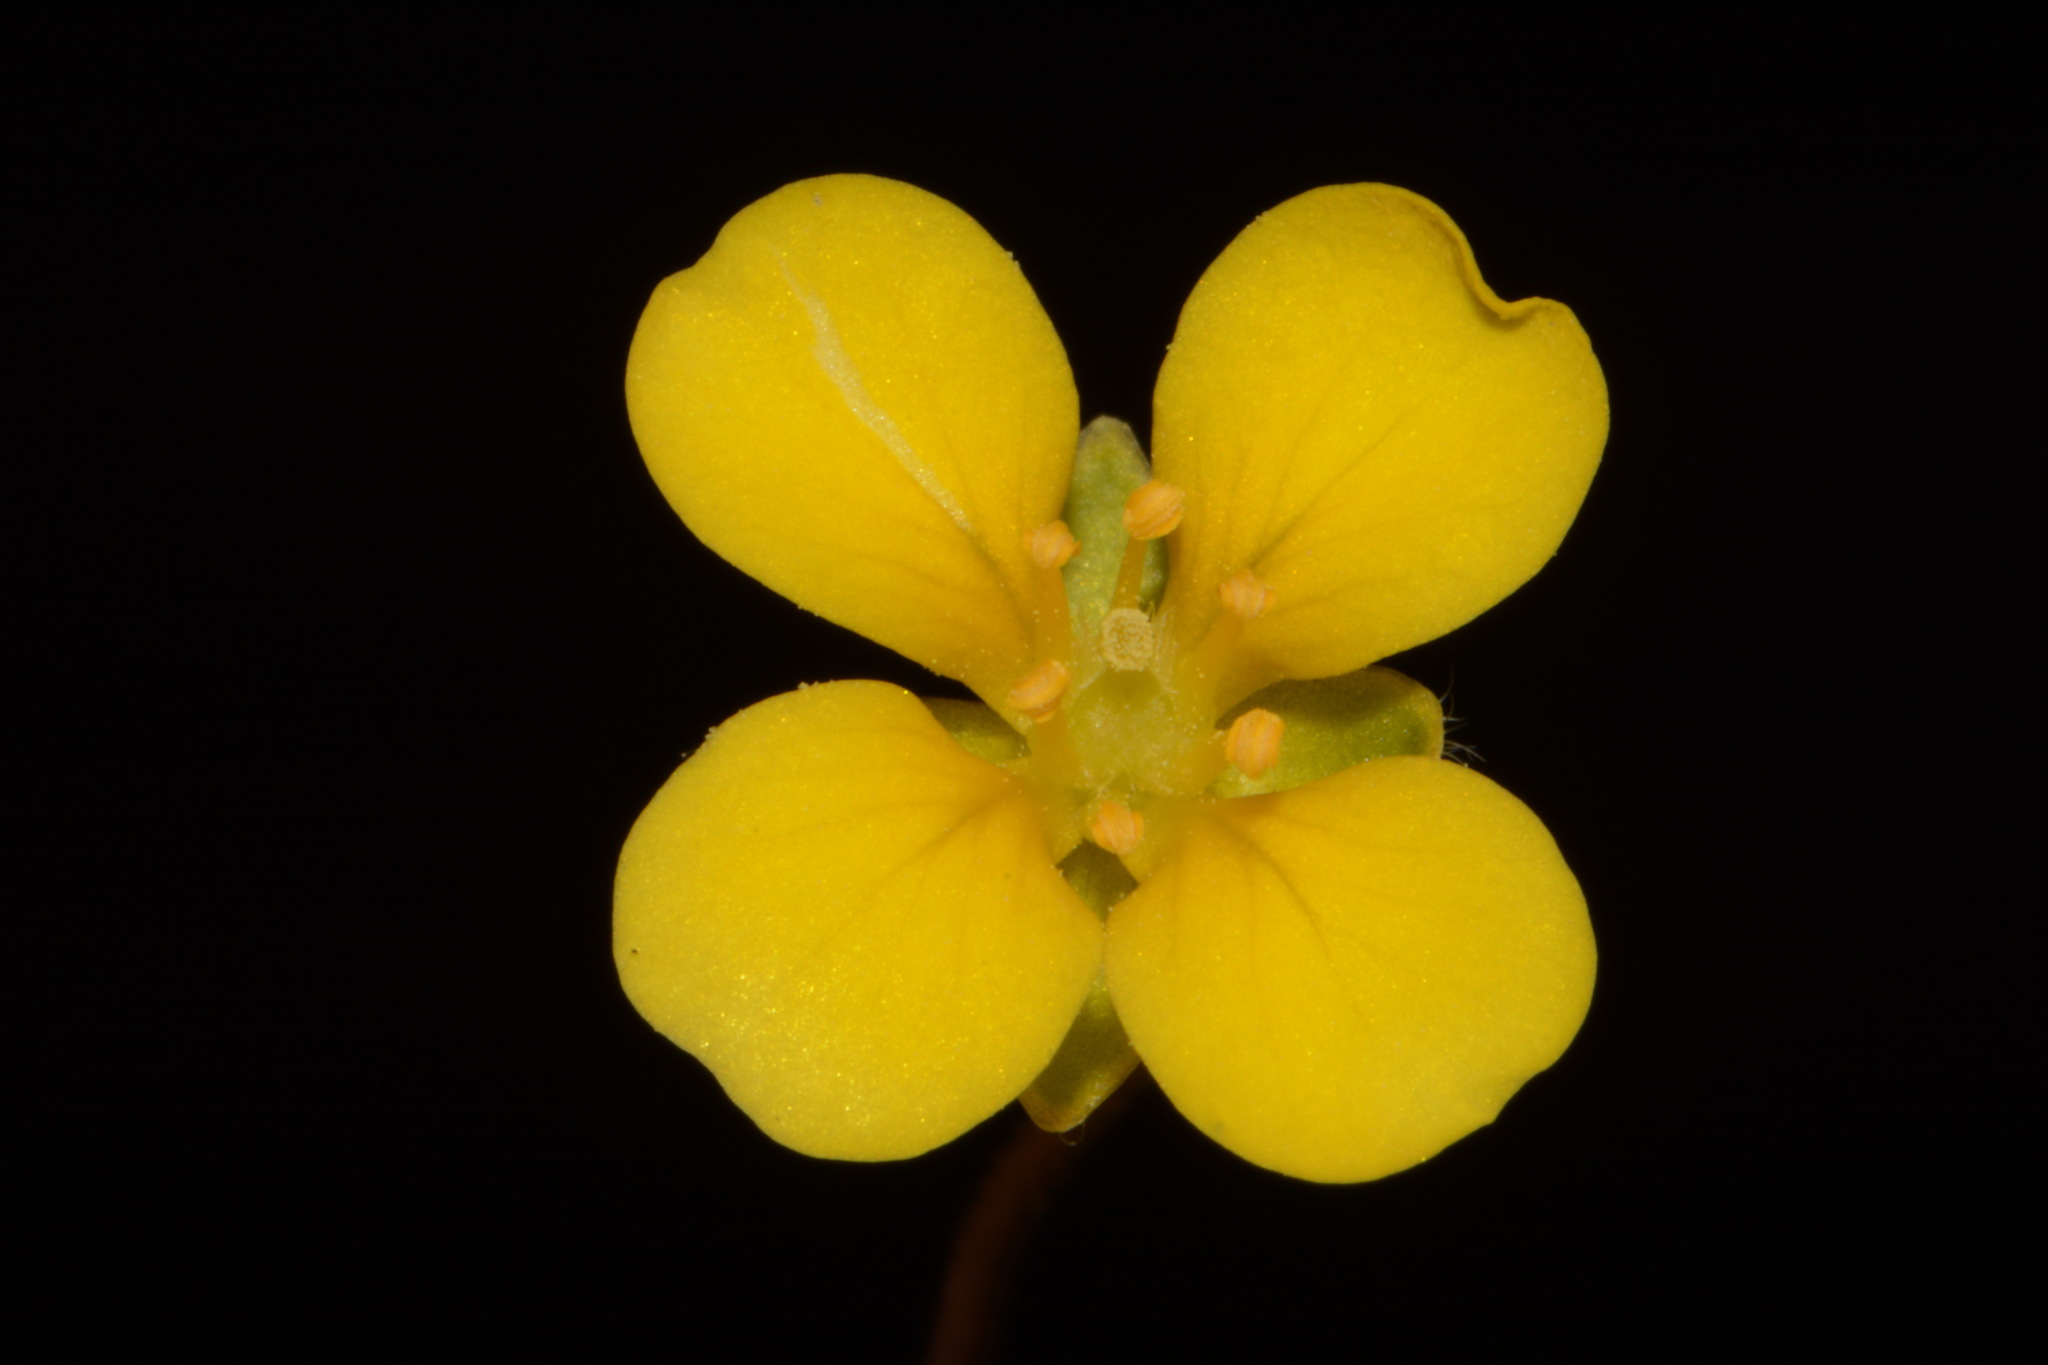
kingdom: Plantae
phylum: Tracheophyta
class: Magnoliopsida
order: Brassicales
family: Brassicaceae
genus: Paysonia
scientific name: Paysonia lescurii
